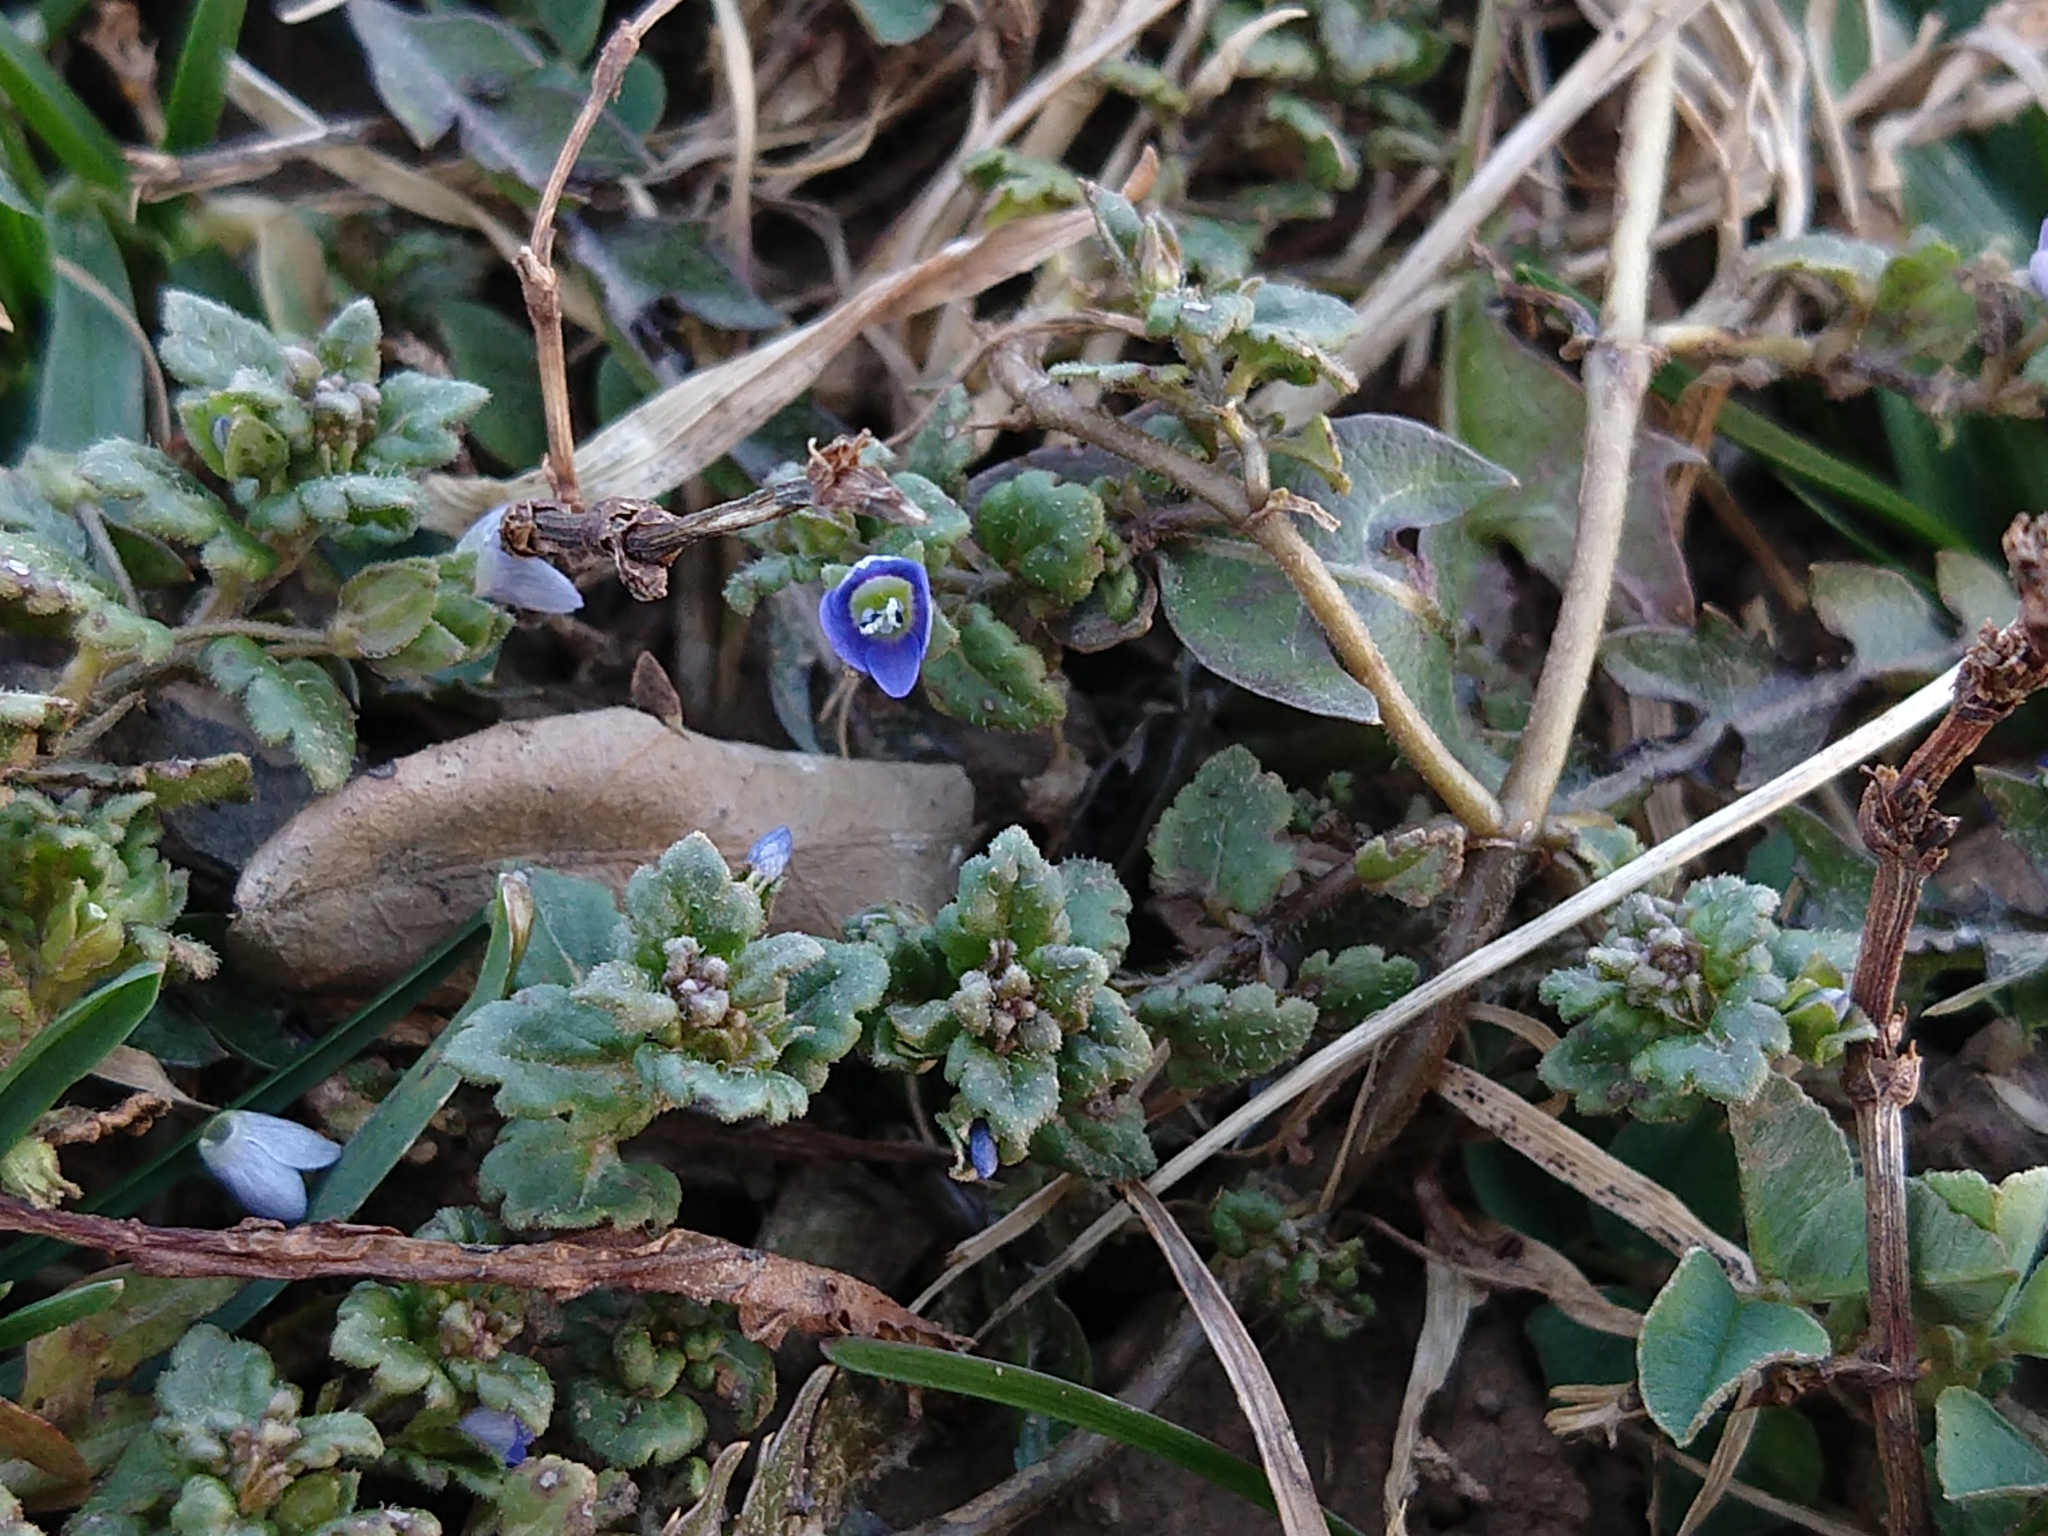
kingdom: Plantae
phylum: Tracheophyta
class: Magnoliopsida
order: Lamiales
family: Plantaginaceae
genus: Veronica
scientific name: Veronica polita
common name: Grey field-speedwell
